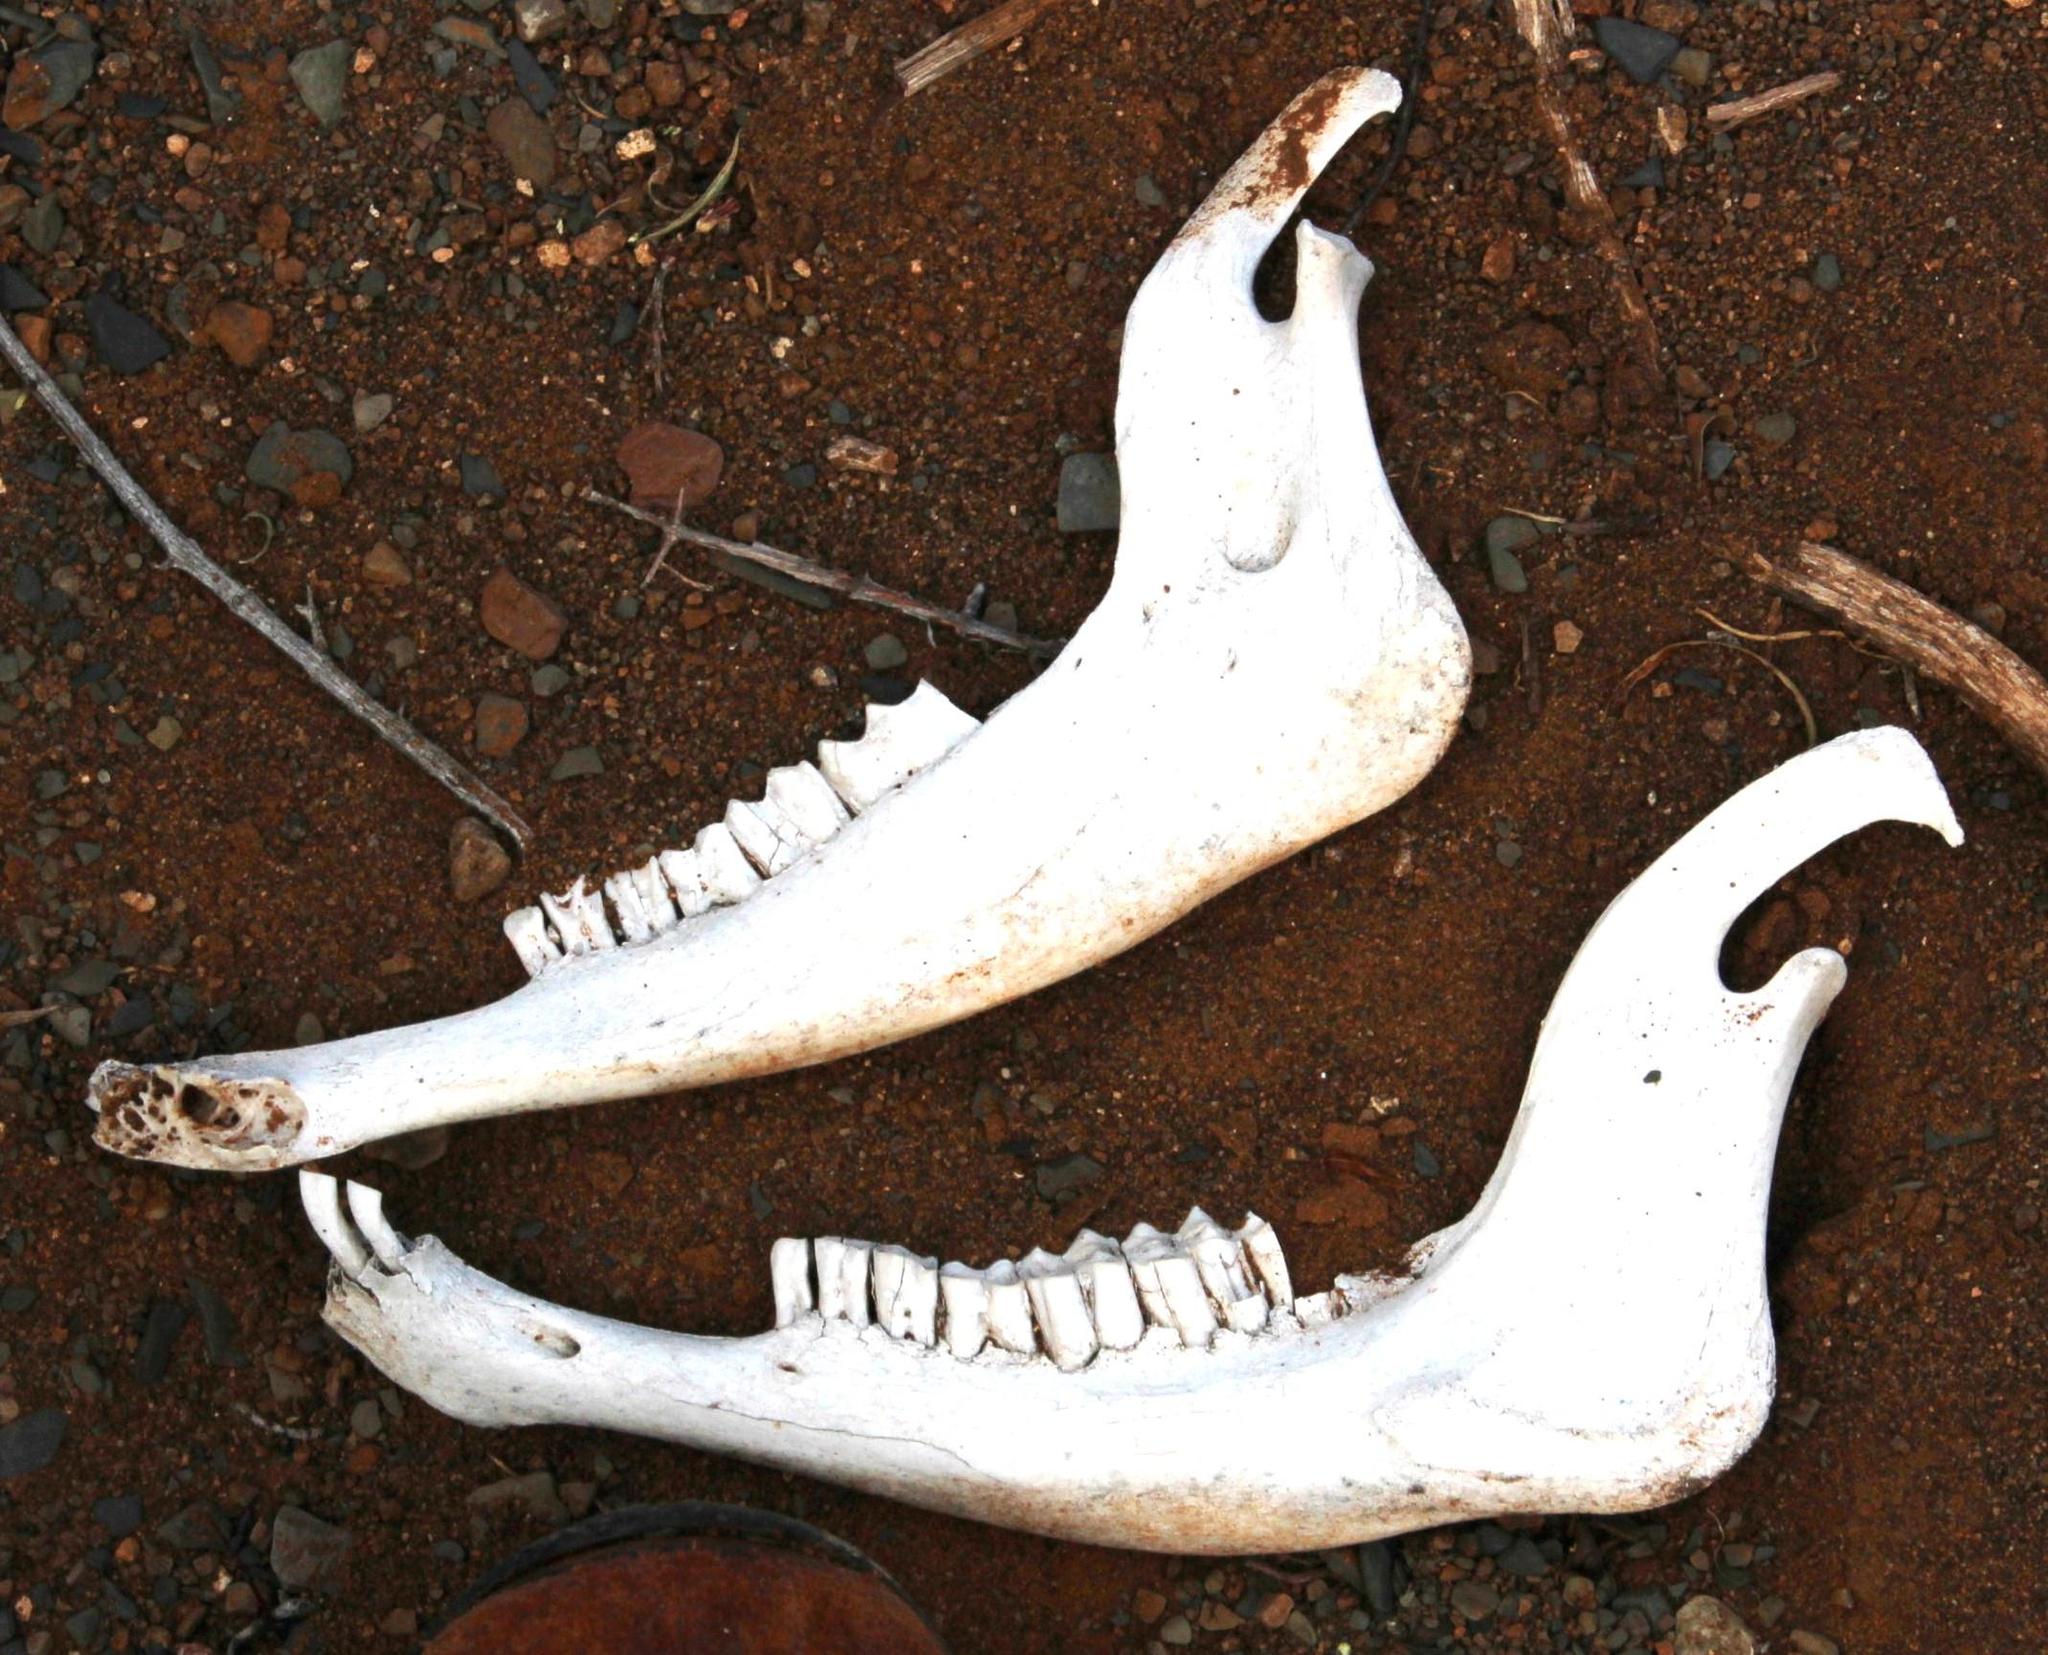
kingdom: Animalia
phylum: Chordata
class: Mammalia
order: Artiodactyla
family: Bovidae
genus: Antidorcas
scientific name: Antidorcas marsupialis
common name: Springbok
